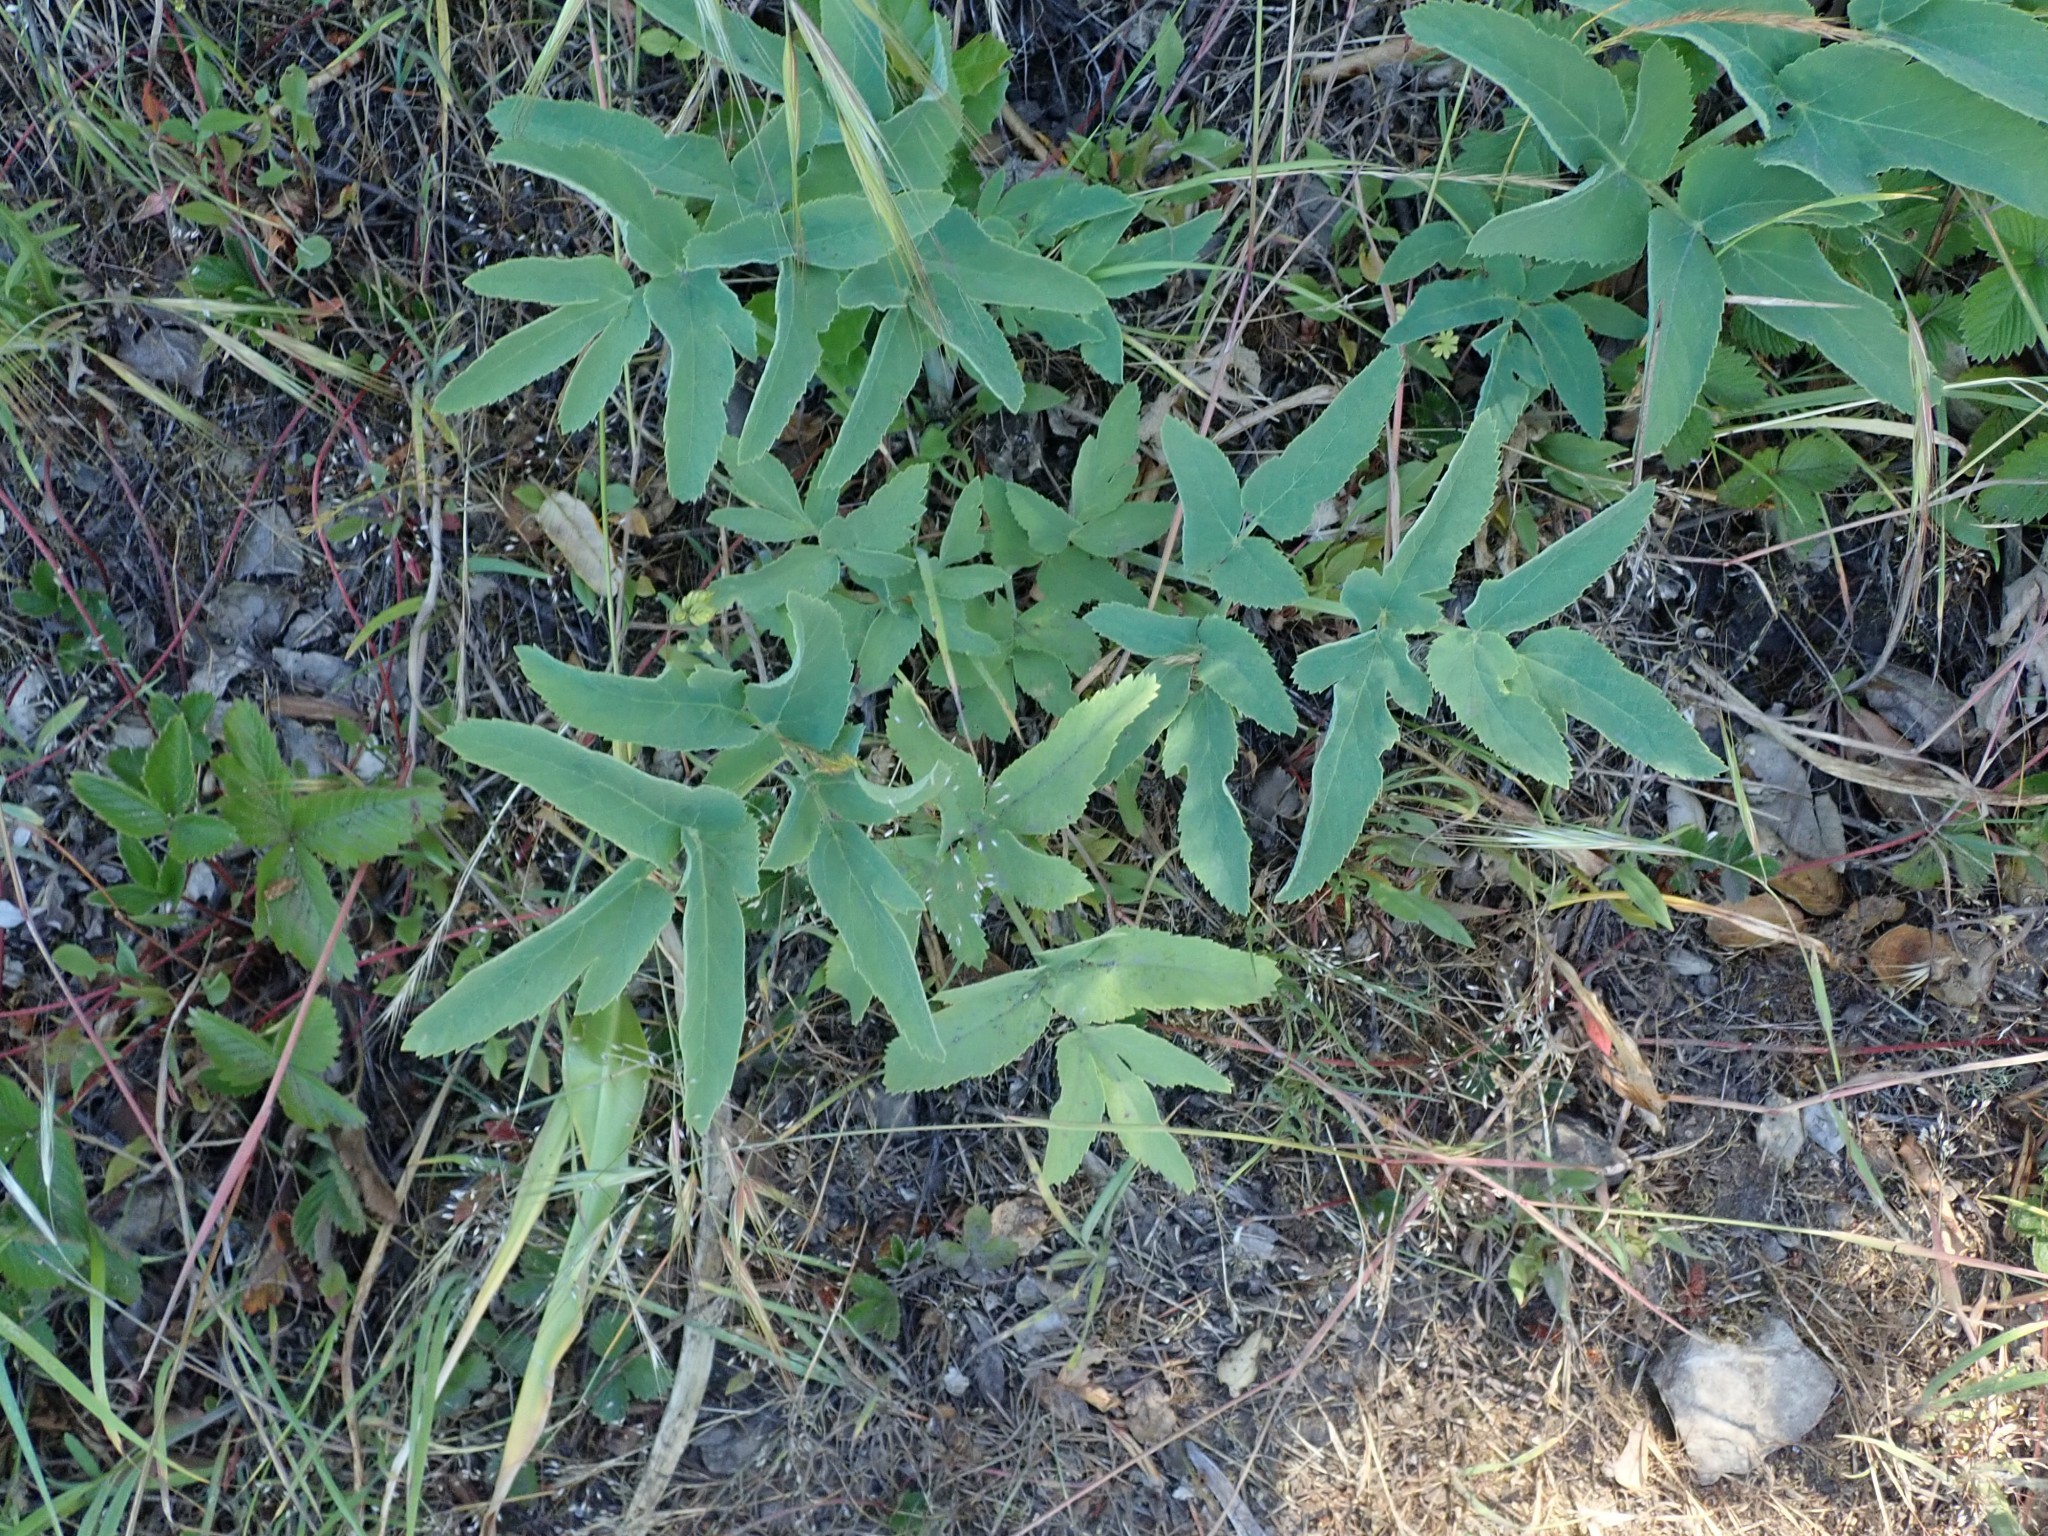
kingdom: Plantae
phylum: Tracheophyta
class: Magnoliopsida
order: Apiales
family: Apiaceae
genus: Angelica
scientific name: Angelica tomentosa
